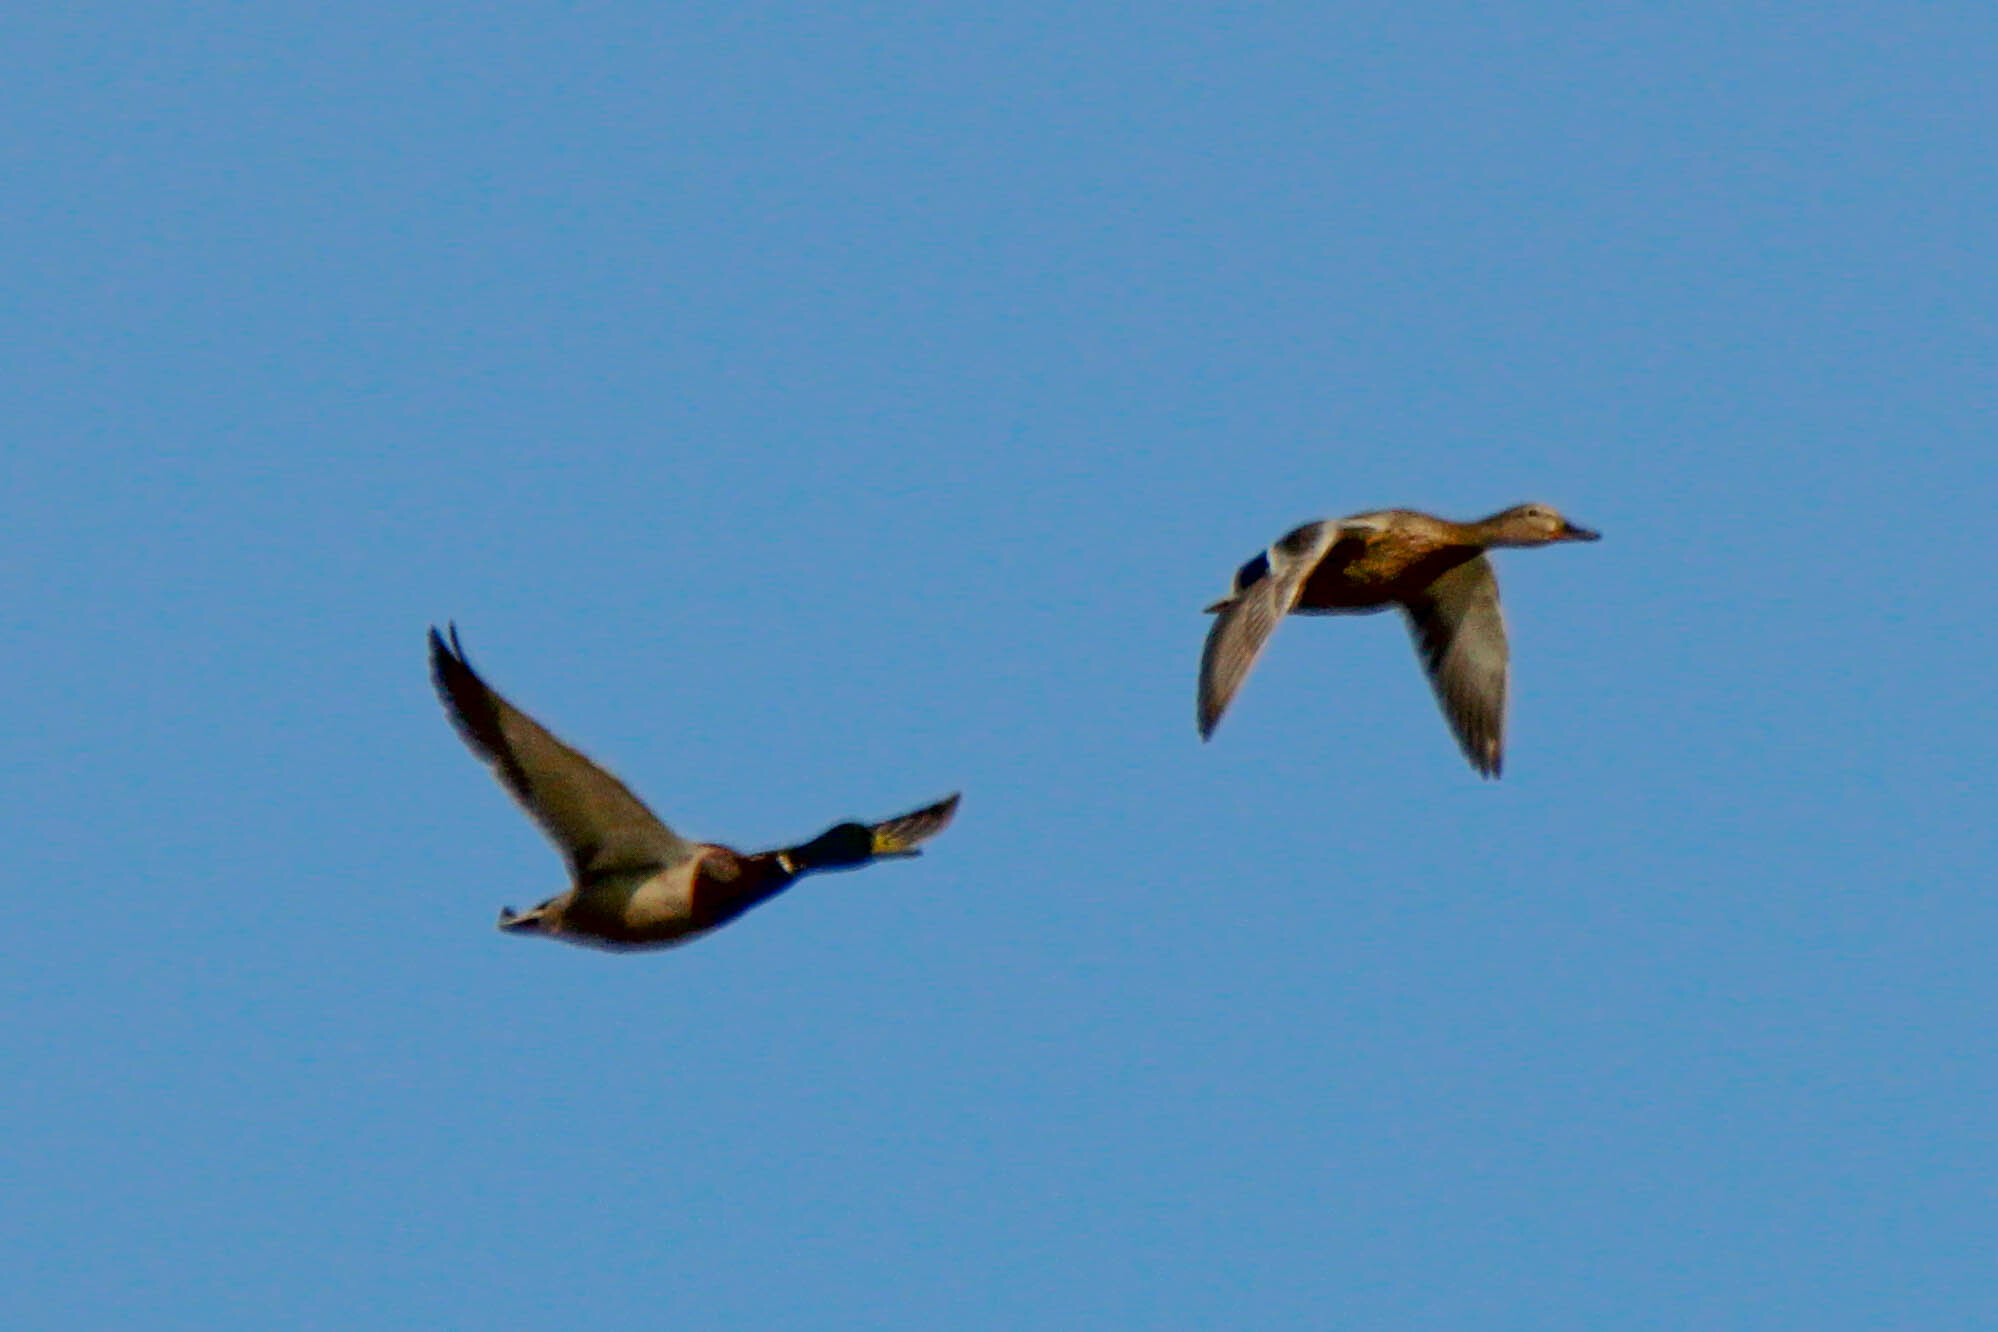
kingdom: Animalia
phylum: Chordata
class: Aves
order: Anseriformes
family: Anatidae
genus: Anas
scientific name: Anas platyrhynchos
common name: Mallard
